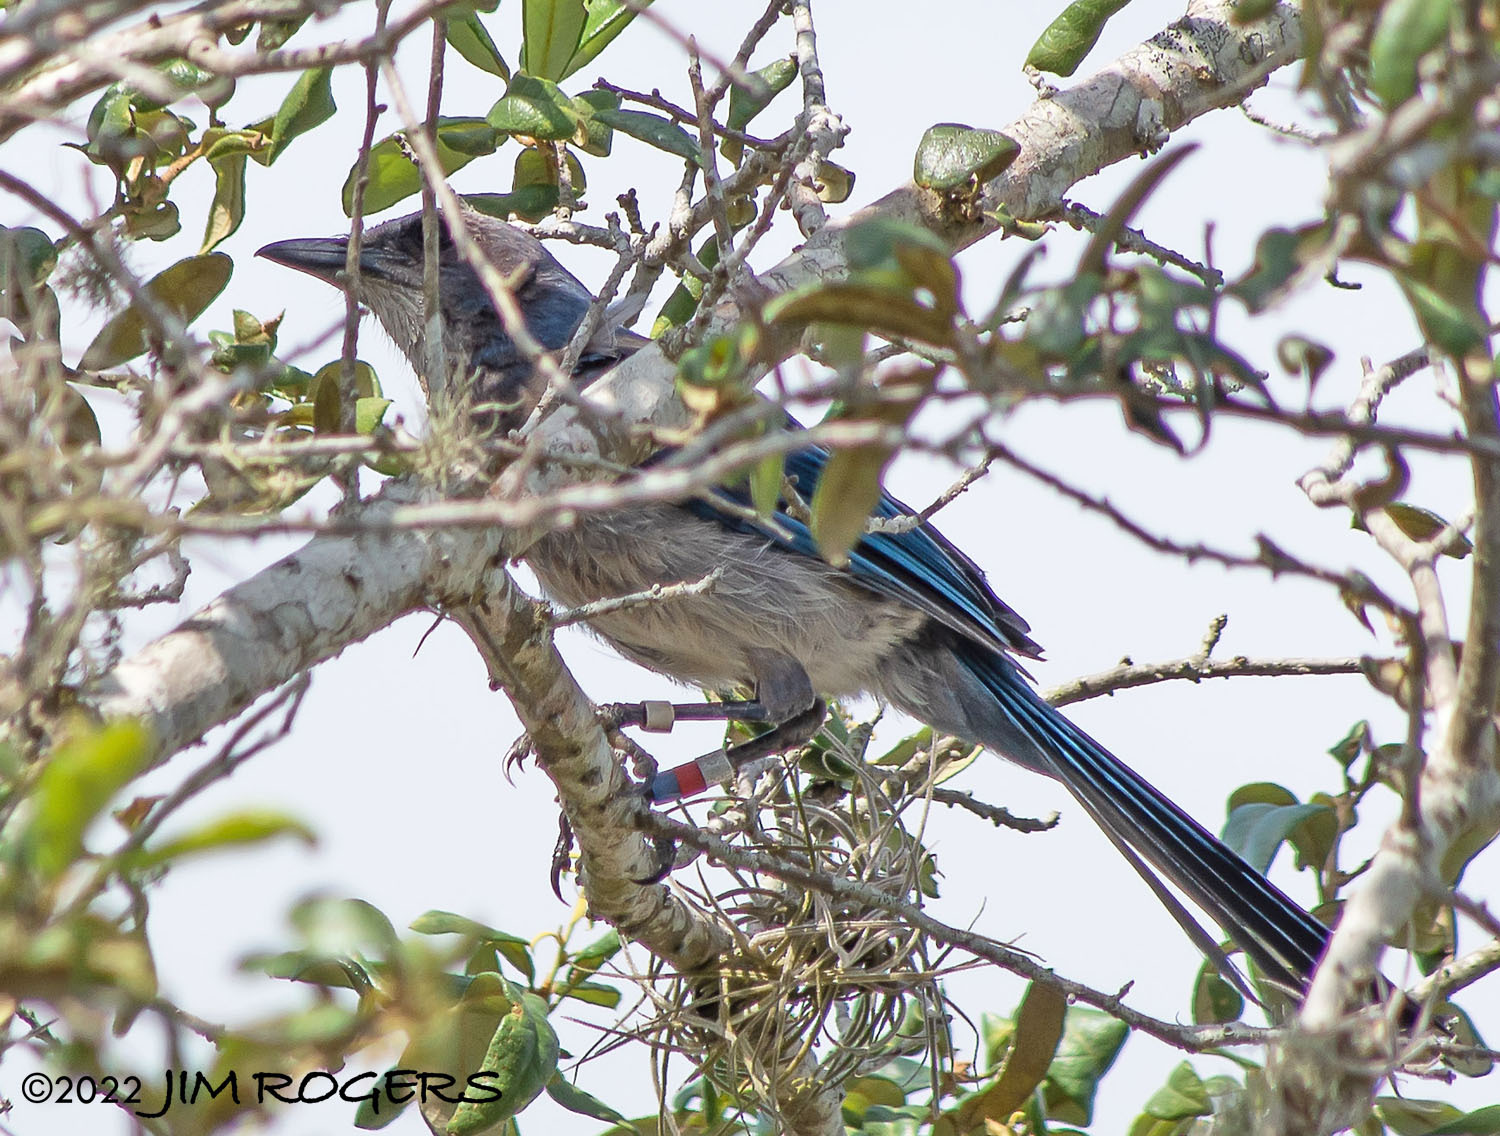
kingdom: Animalia
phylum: Chordata
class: Aves
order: Passeriformes
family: Corvidae
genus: Aphelocoma
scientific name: Aphelocoma coerulescens
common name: Florida scrub jay
